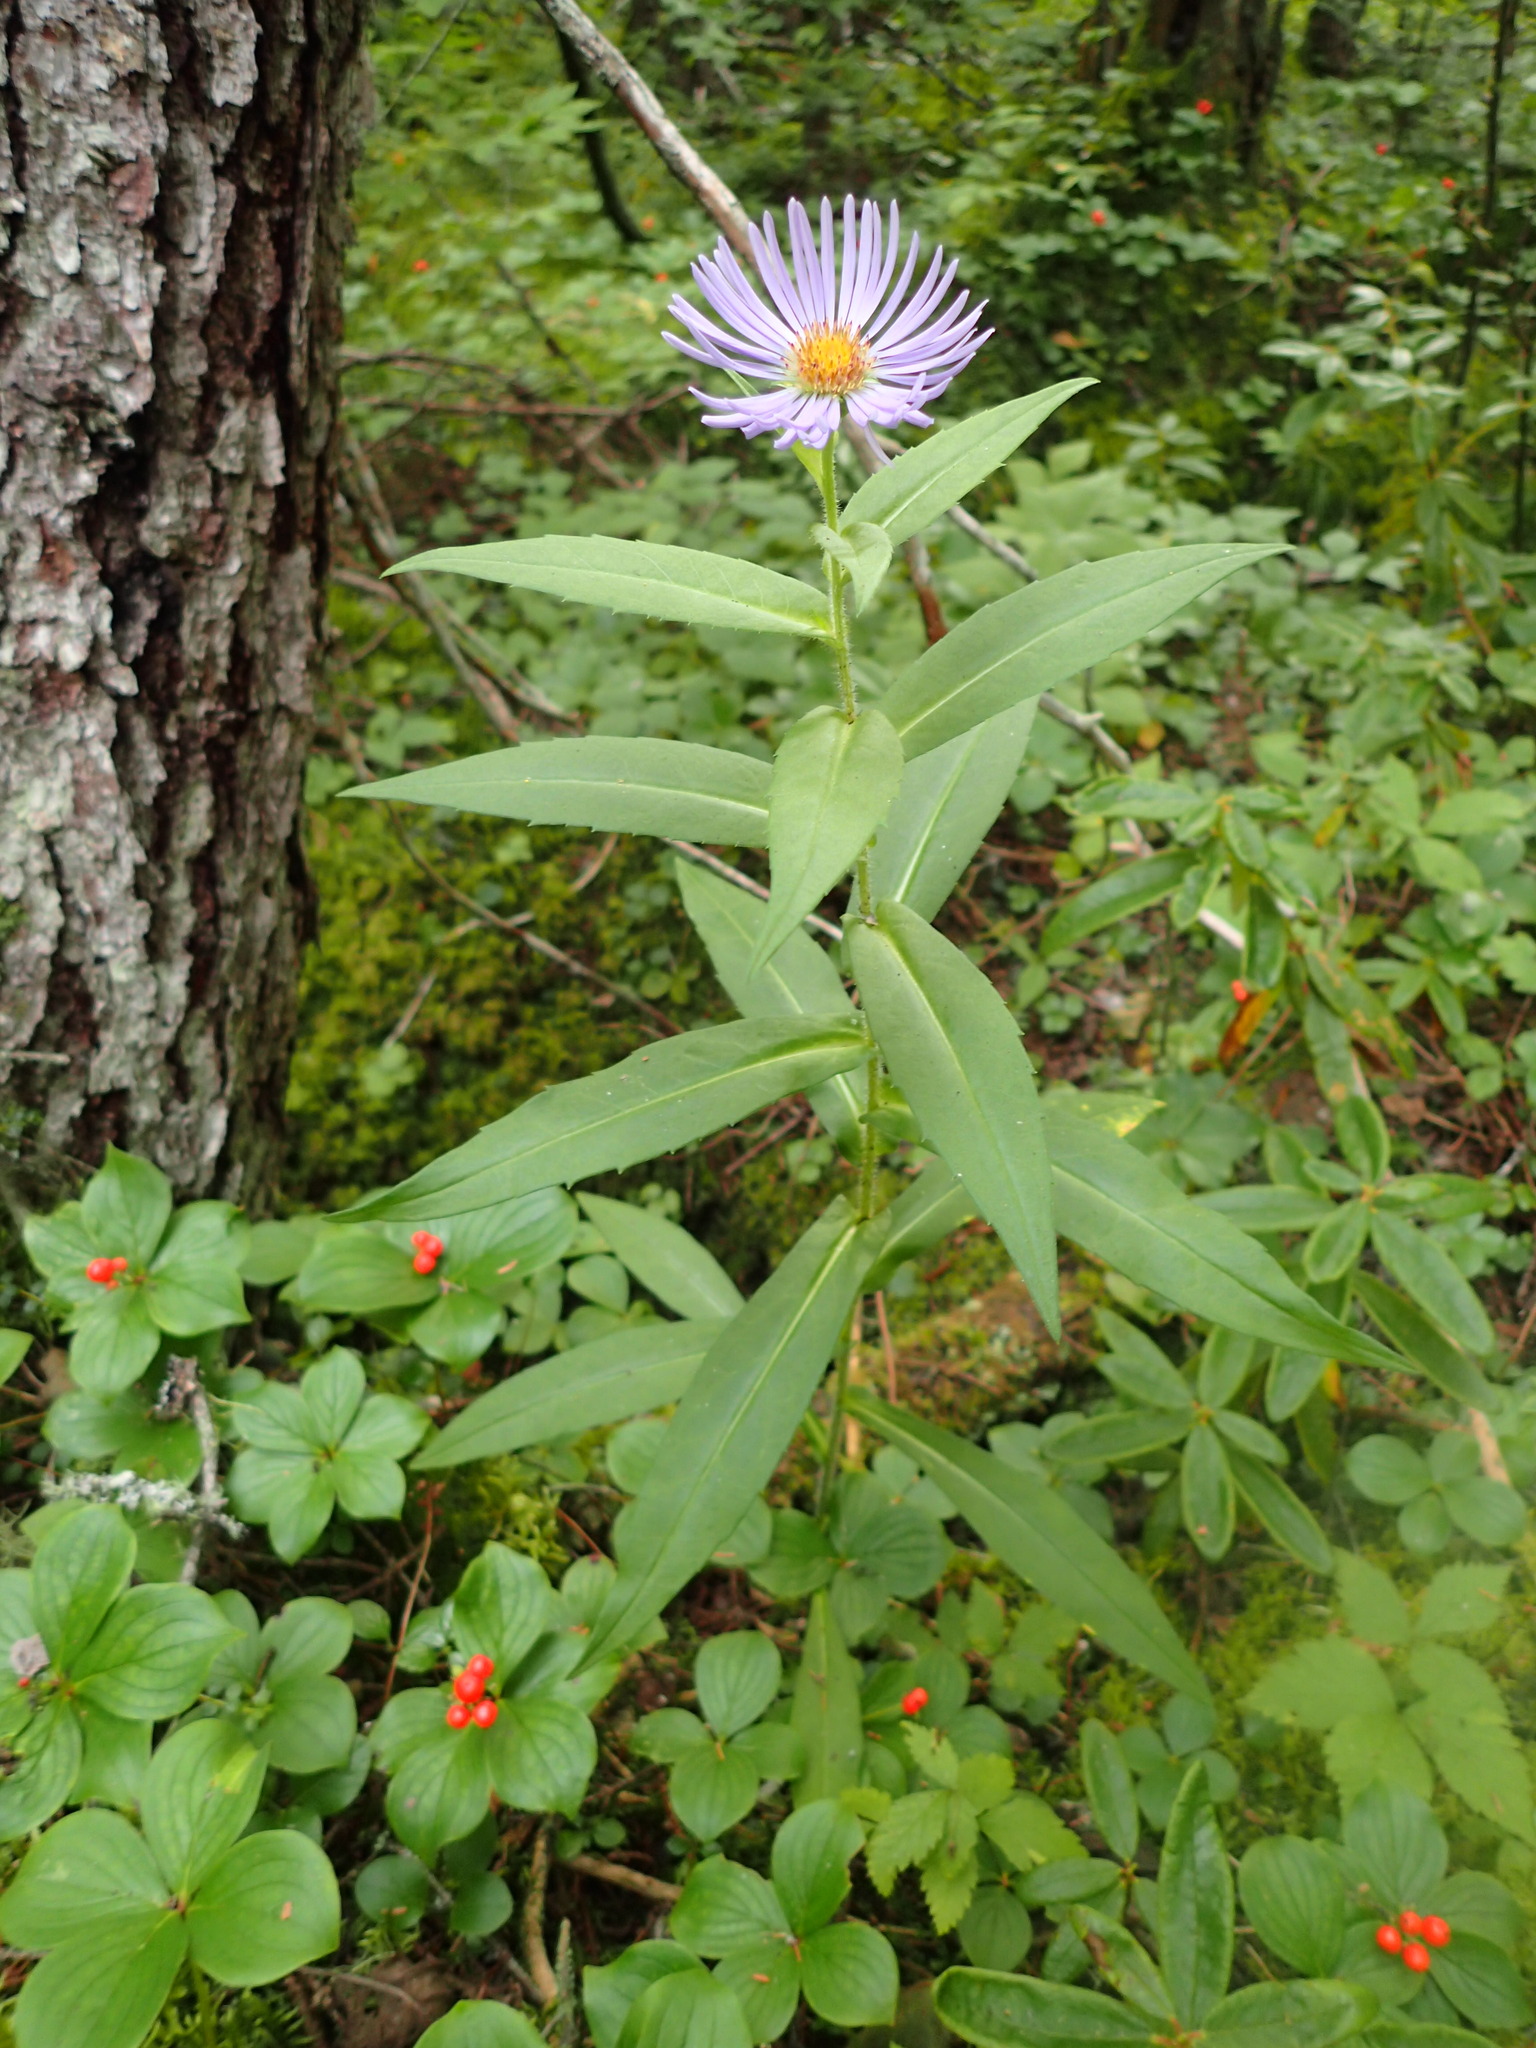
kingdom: Plantae
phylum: Tracheophyta
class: Magnoliopsida
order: Asterales
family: Asteraceae
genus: Symphyotrichum
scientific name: Symphyotrichum puniceum
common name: Bog aster
